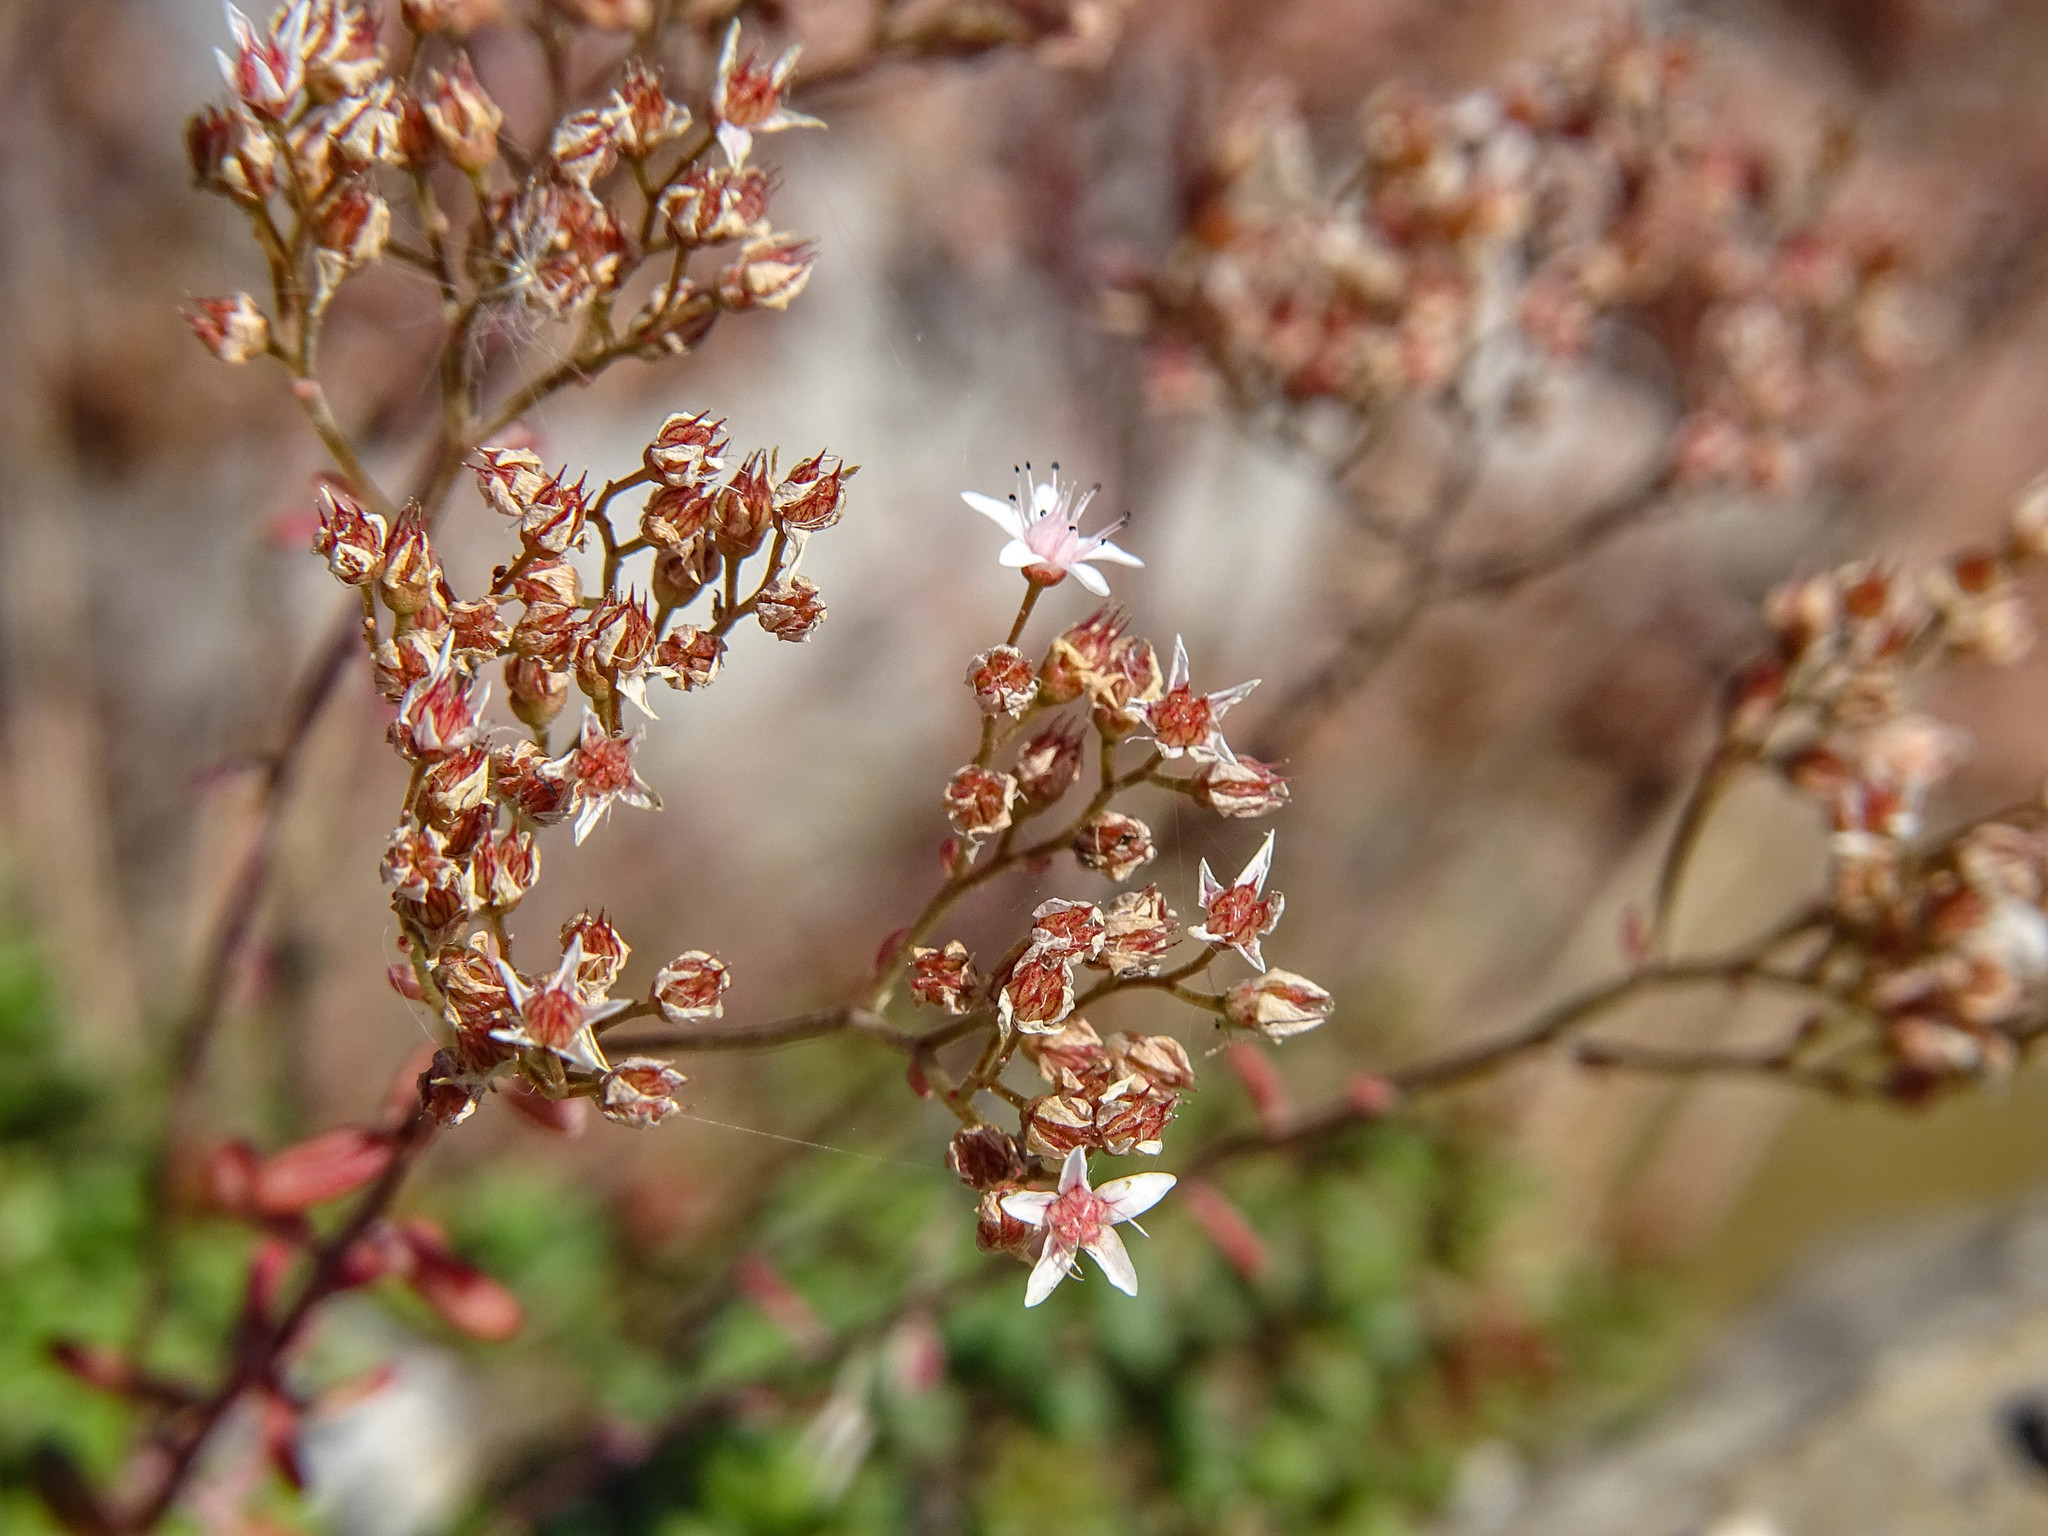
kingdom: Plantae
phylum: Tracheophyta
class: Magnoliopsida
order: Saxifragales
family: Crassulaceae
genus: Sedum
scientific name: Sedum album
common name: White stonecrop
